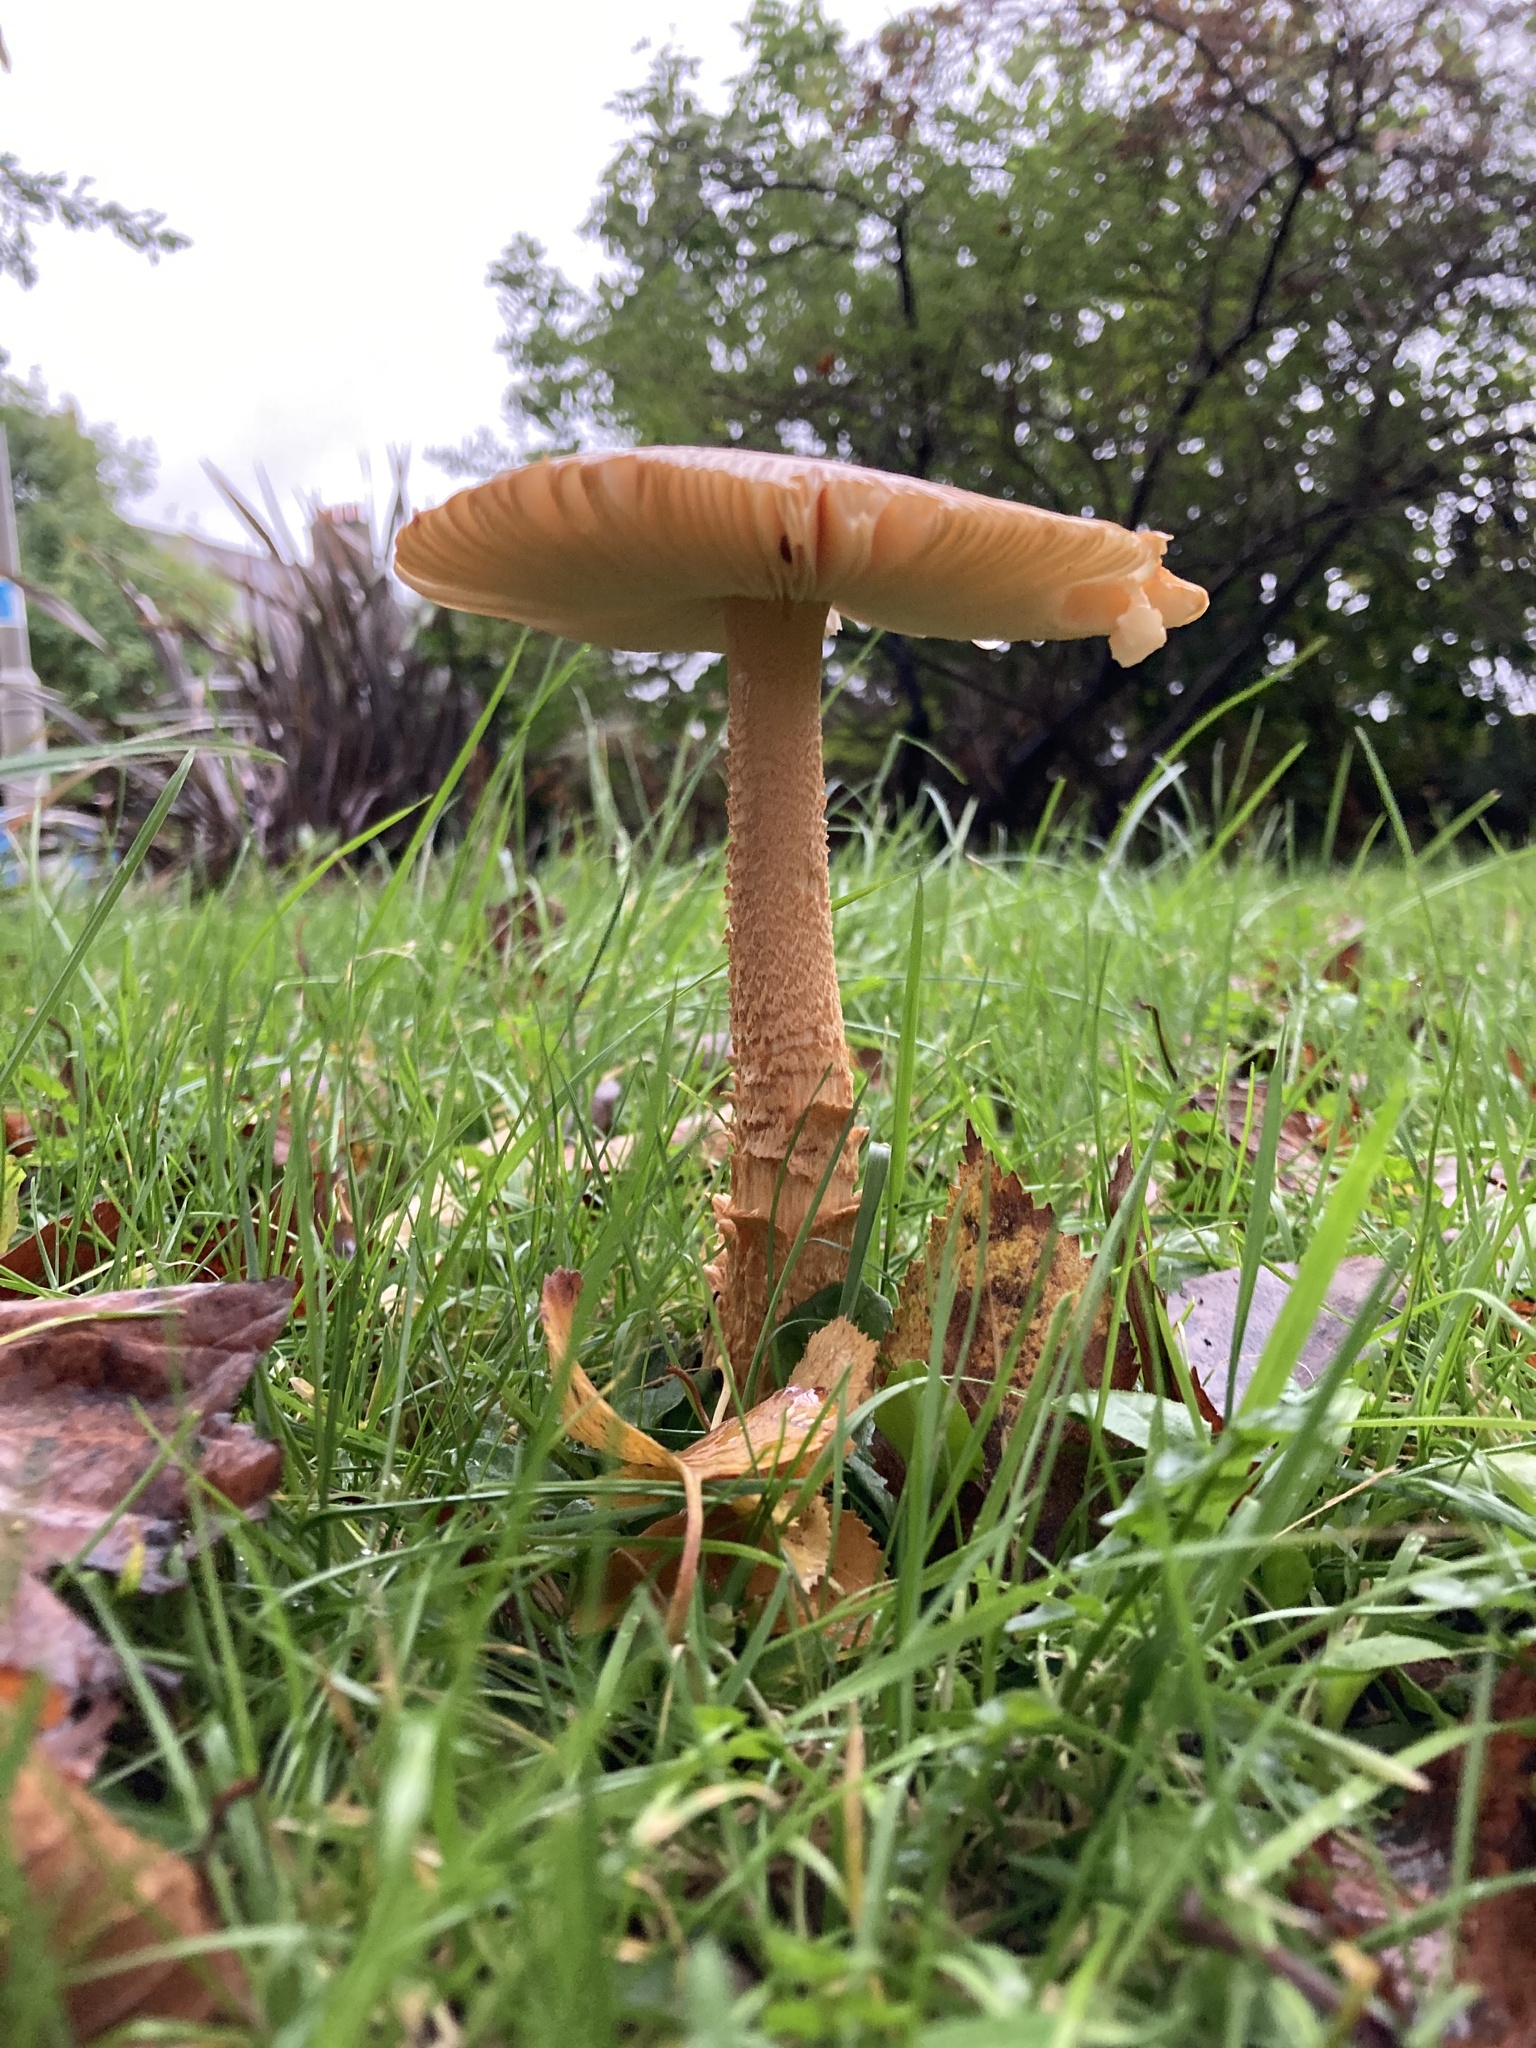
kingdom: Fungi
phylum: Basidiomycota
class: Agaricomycetes
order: Agaricales
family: Amanitaceae
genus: Amanita
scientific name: Amanita crocea
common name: Orange grisette
